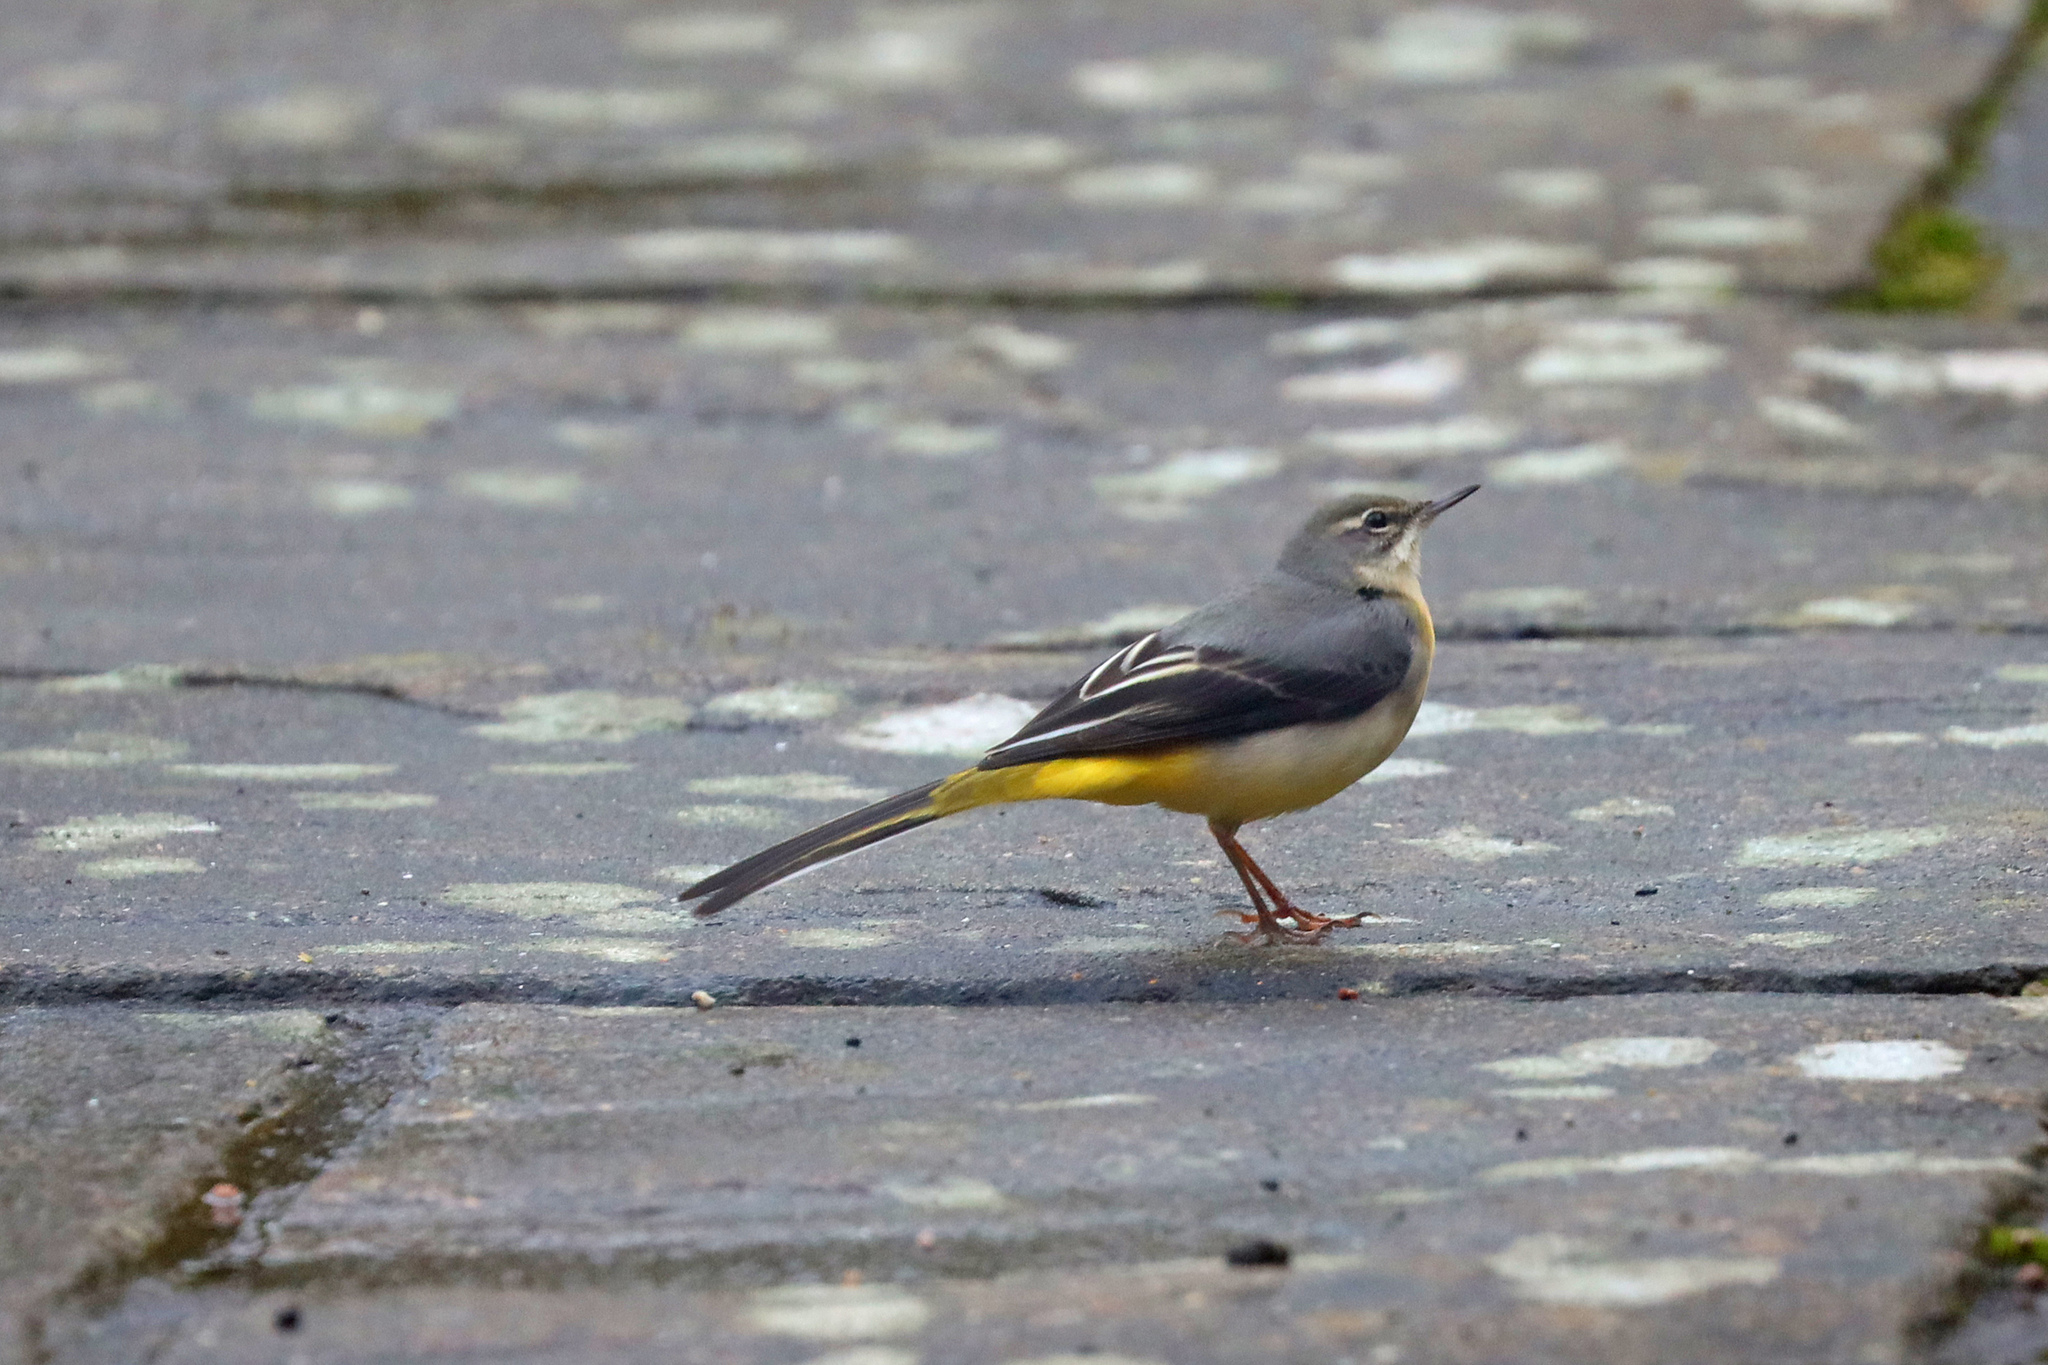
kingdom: Animalia
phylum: Chordata
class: Aves
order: Passeriformes
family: Motacillidae
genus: Motacilla
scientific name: Motacilla cinerea
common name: Grey wagtail
